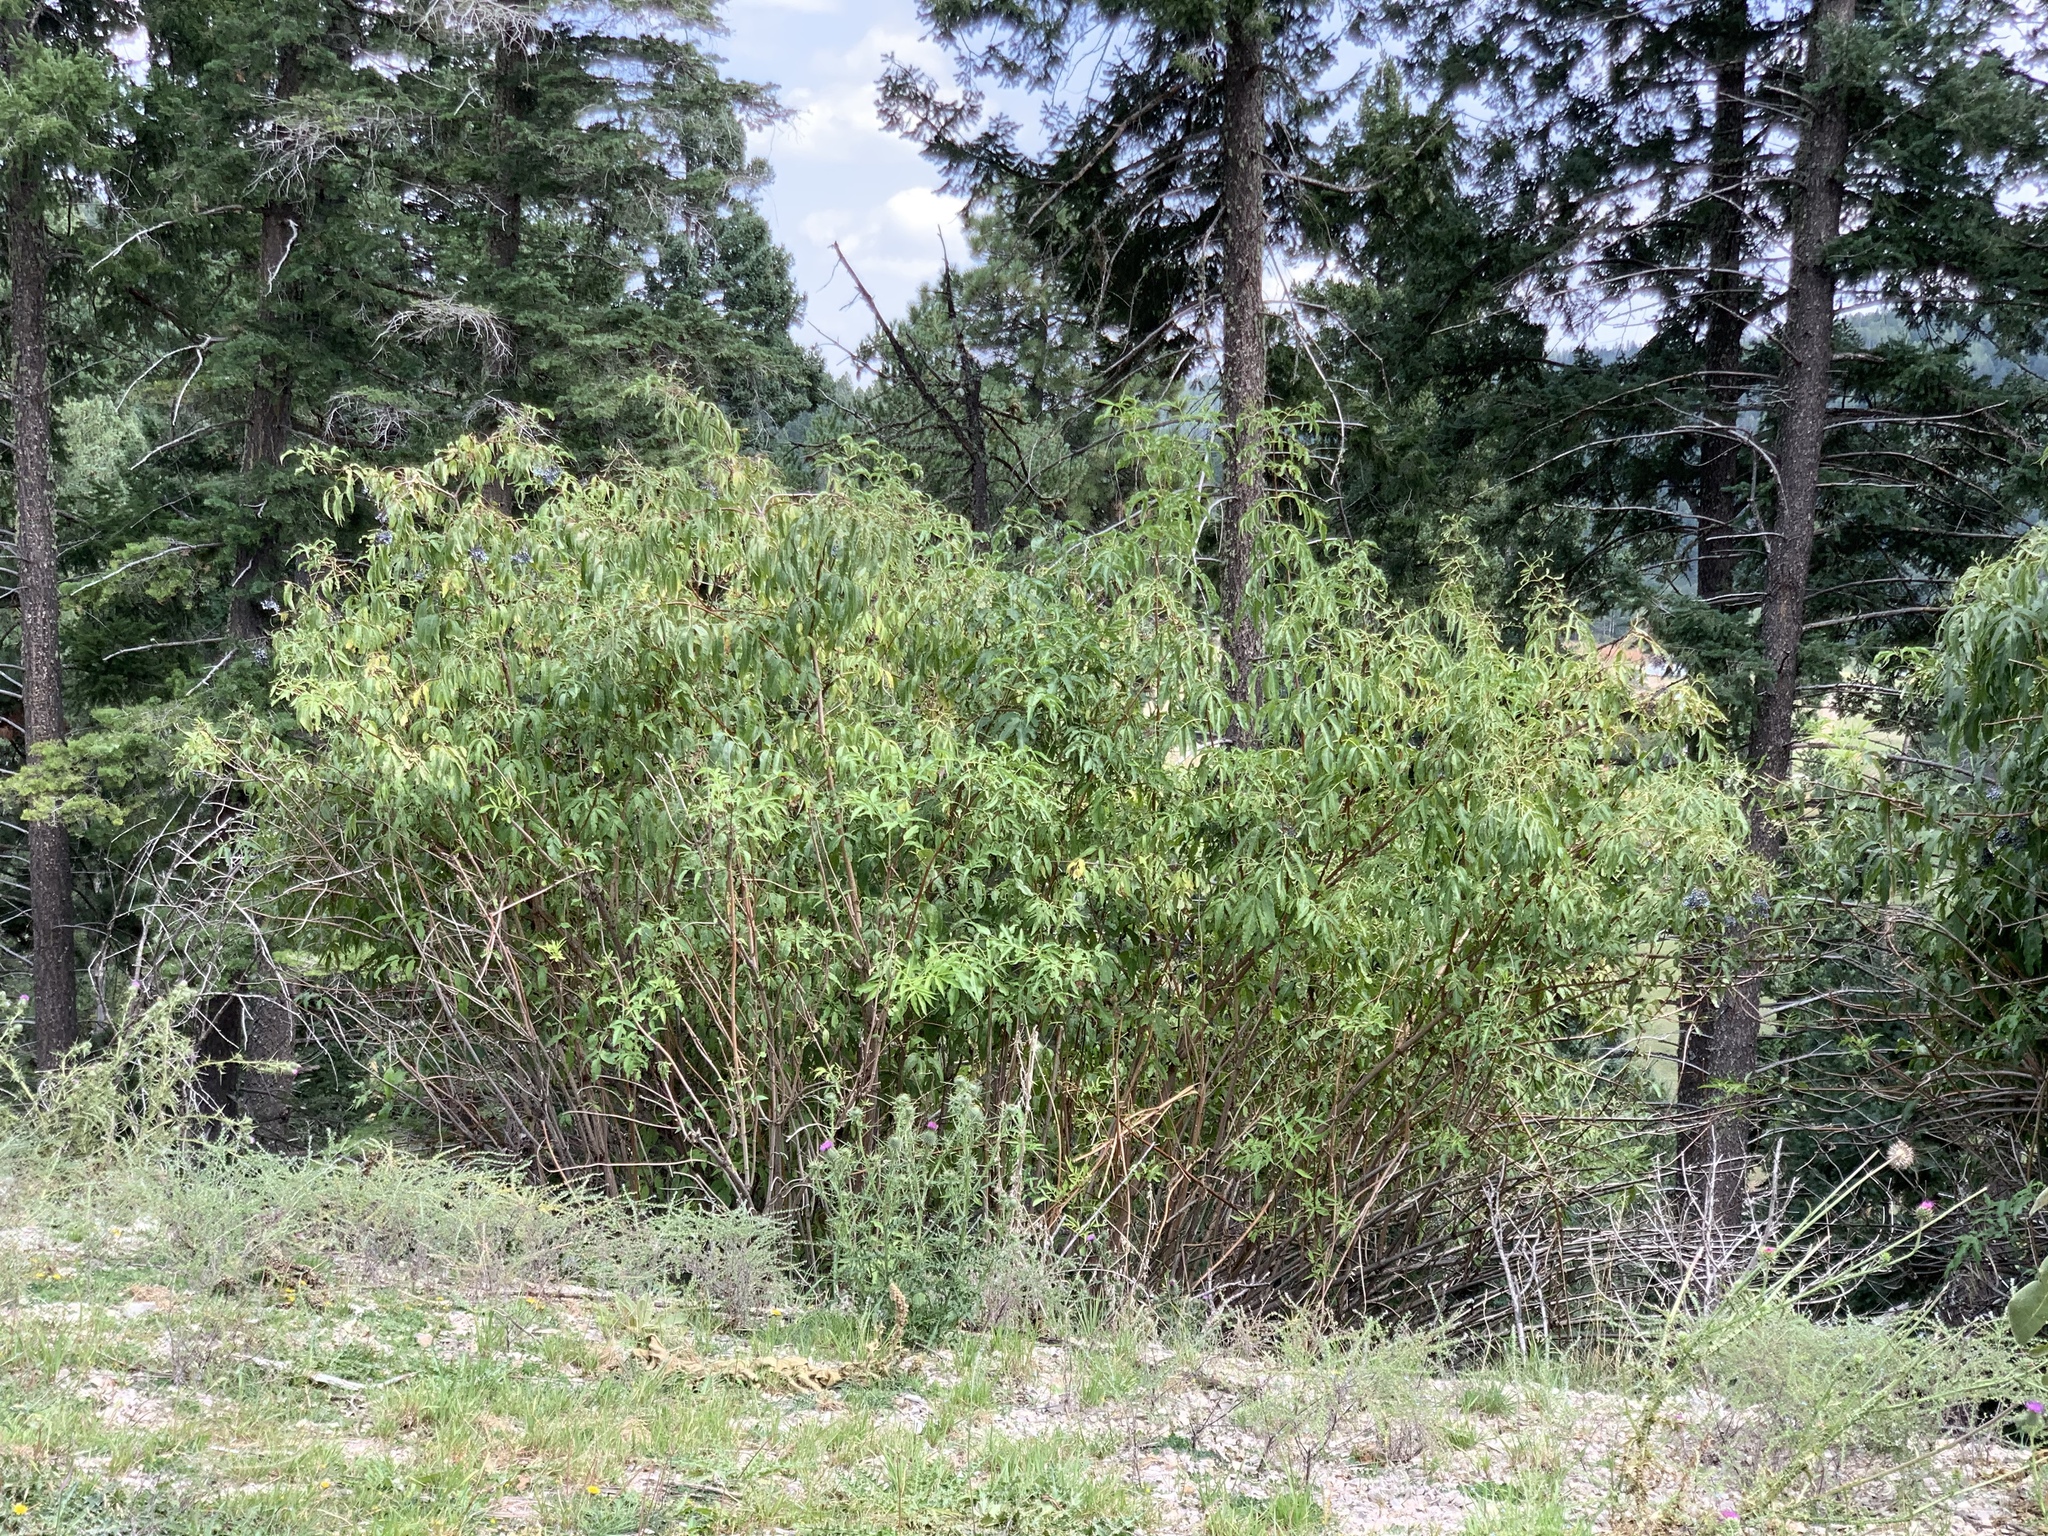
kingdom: Plantae
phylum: Tracheophyta
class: Magnoliopsida
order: Dipsacales
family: Viburnaceae
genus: Sambucus
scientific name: Sambucus cerulea
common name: Blue elder
